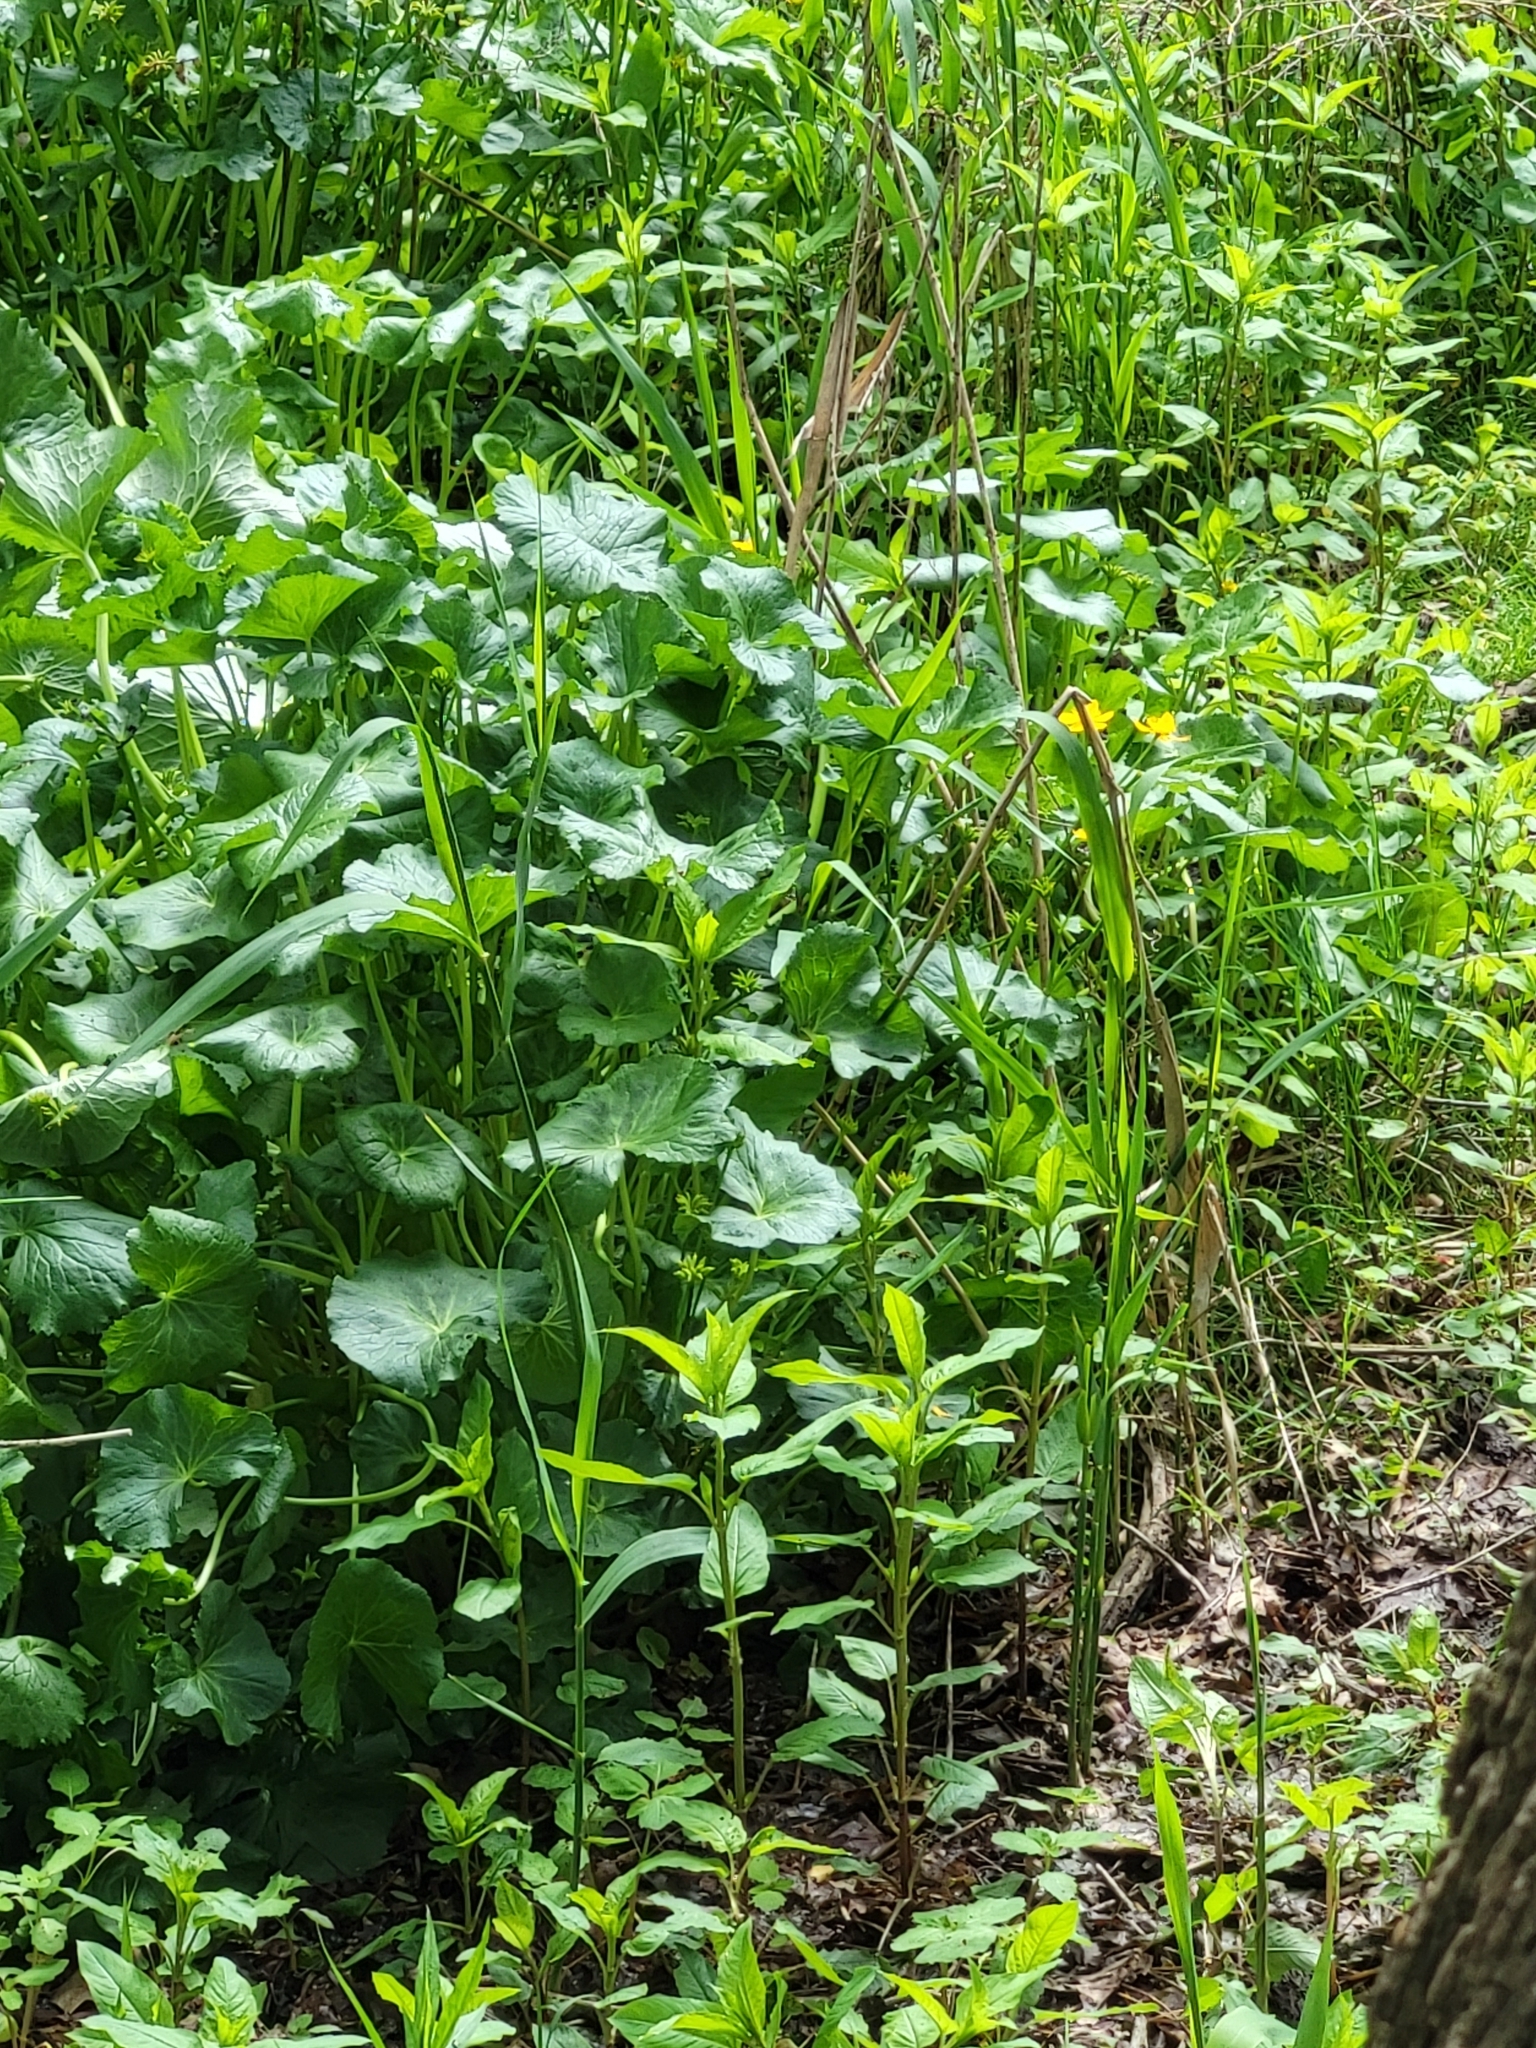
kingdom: Plantae
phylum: Tracheophyta
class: Magnoliopsida
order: Ranunculales
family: Ranunculaceae
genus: Caltha
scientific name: Caltha palustris
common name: Marsh marigold
